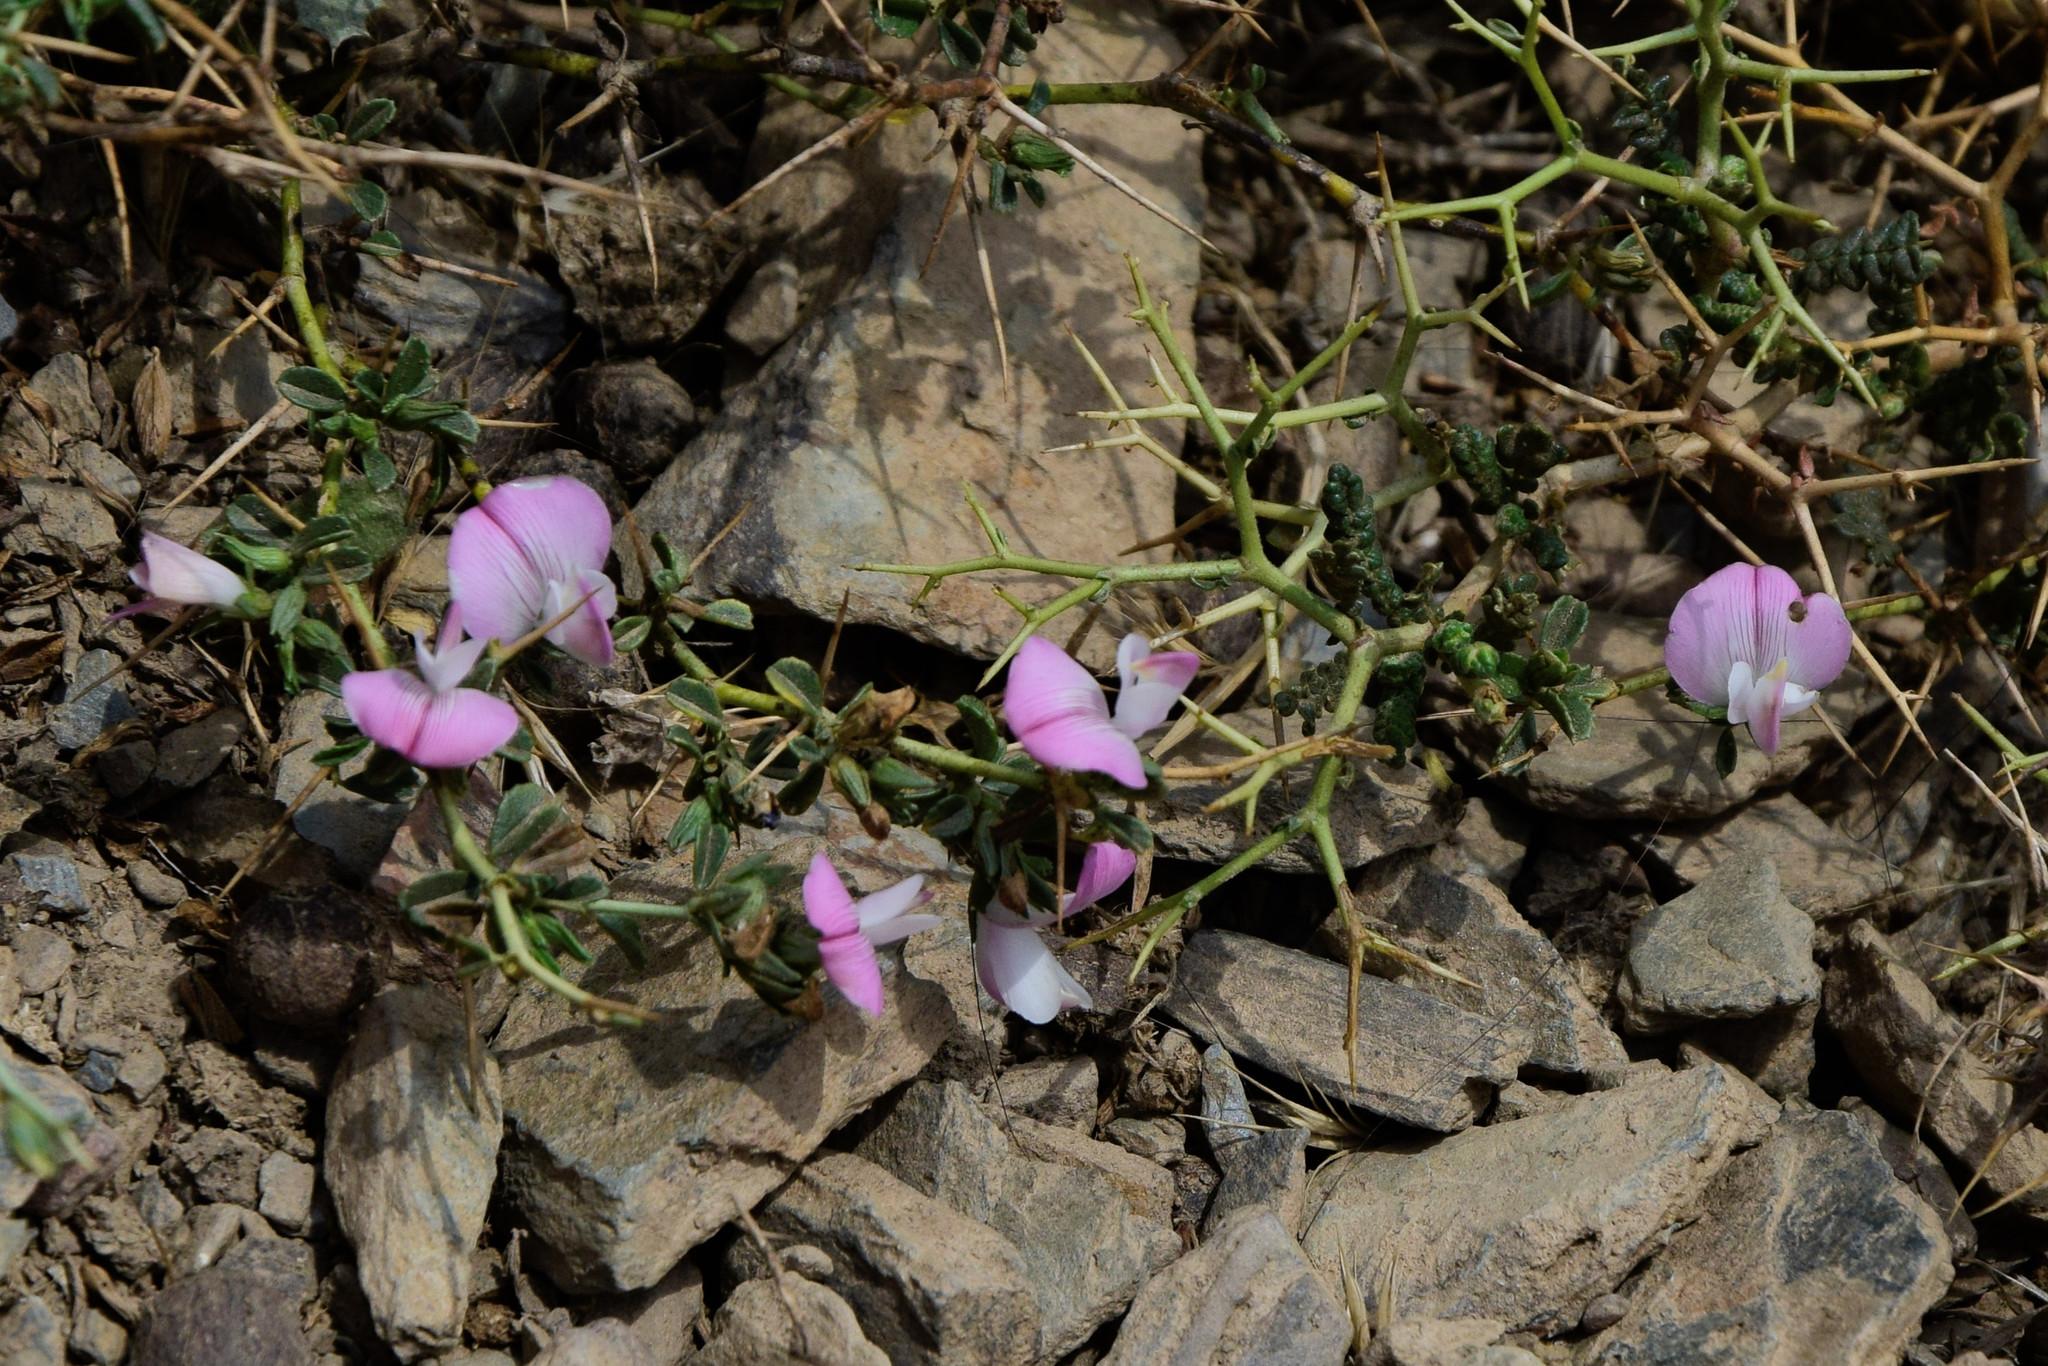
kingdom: Plantae
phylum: Tracheophyta
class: Magnoliopsida
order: Fabales
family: Fabaceae
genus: Ononis
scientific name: Ononis spinosa
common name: Spiny restharrow
